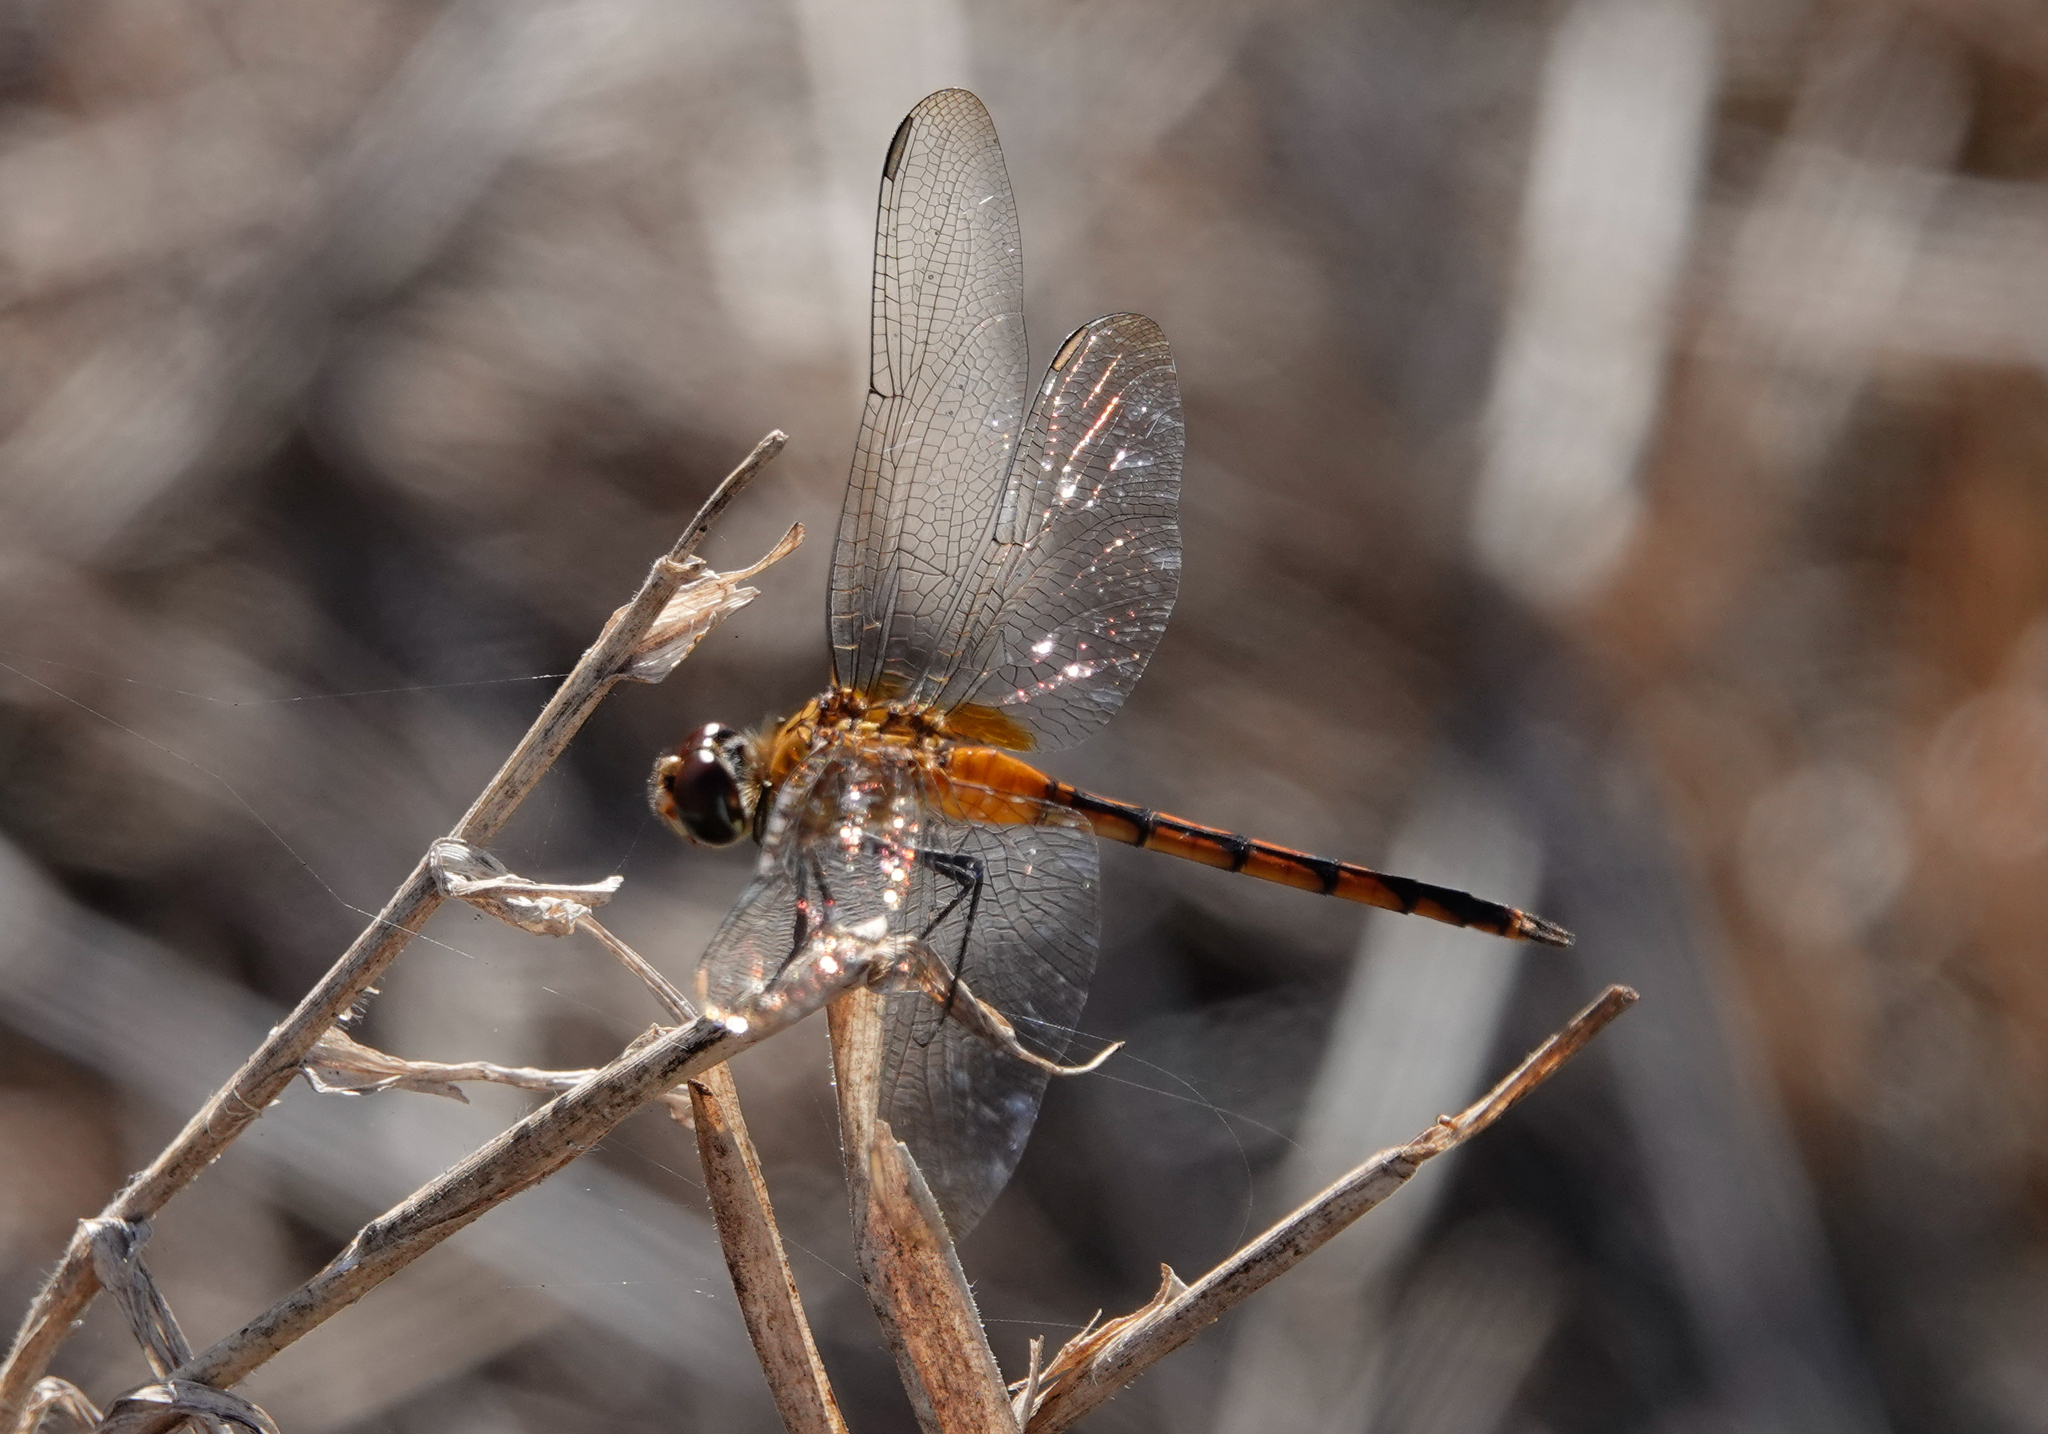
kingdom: Animalia
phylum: Arthropoda
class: Insecta
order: Odonata
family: Libellulidae
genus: Brachymesia
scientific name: Brachymesia herbida
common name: Tawny pennant
